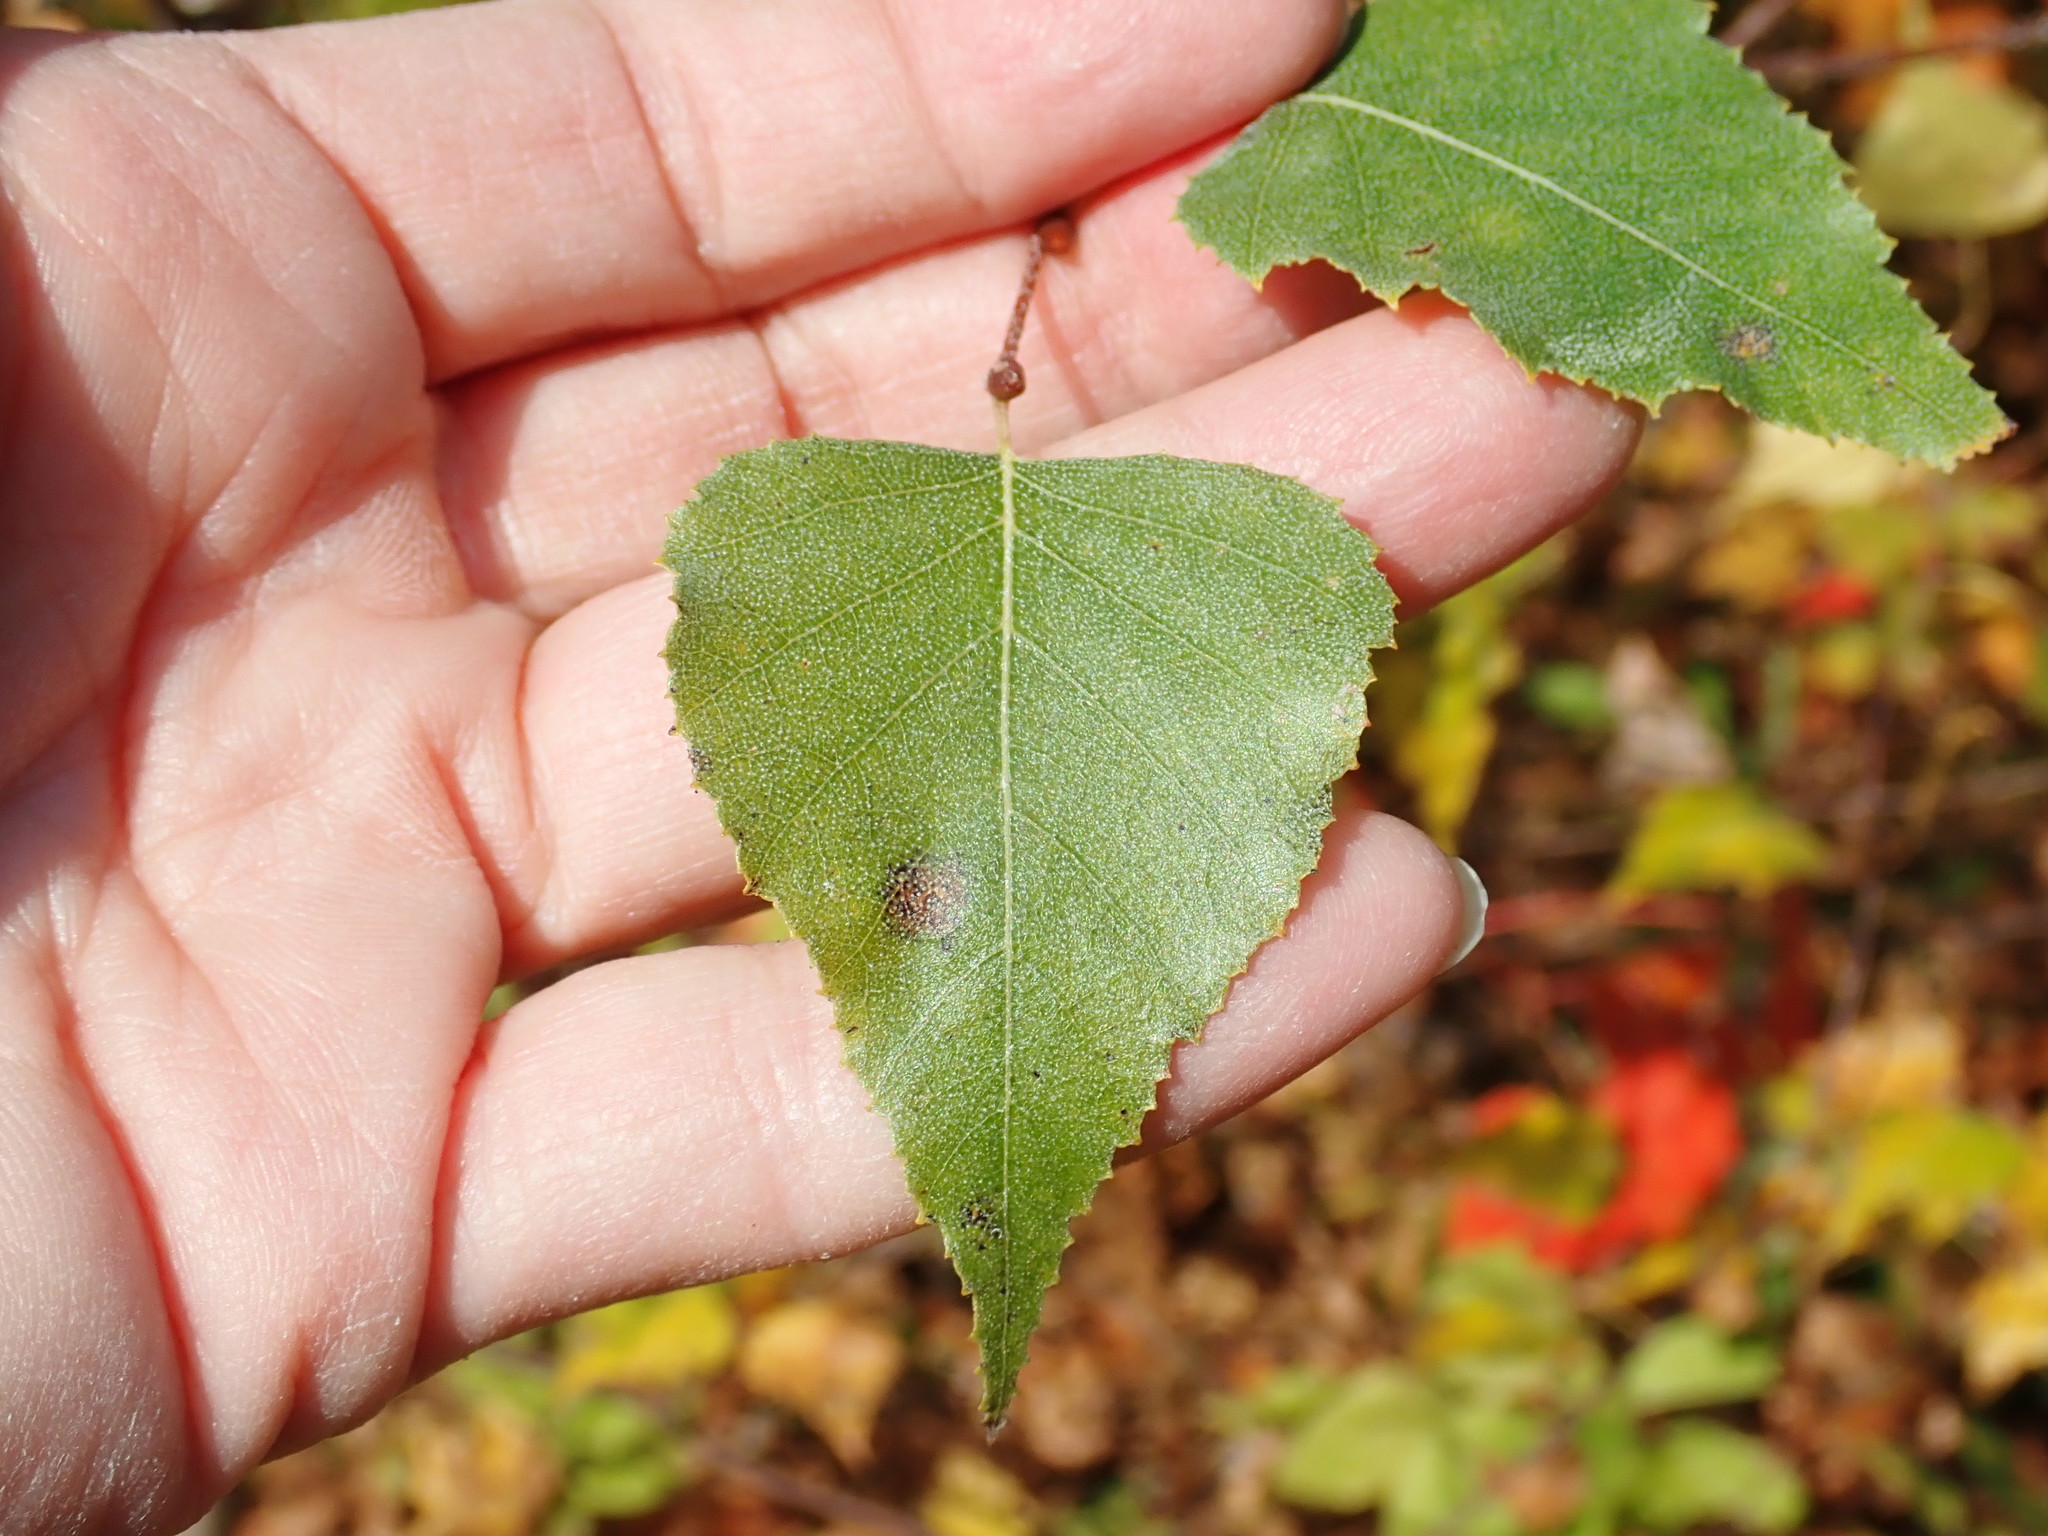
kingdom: Plantae
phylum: Tracheophyta
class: Magnoliopsida
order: Fagales
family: Betulaceae
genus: Betula
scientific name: Betula populifolia
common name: Fire birch
